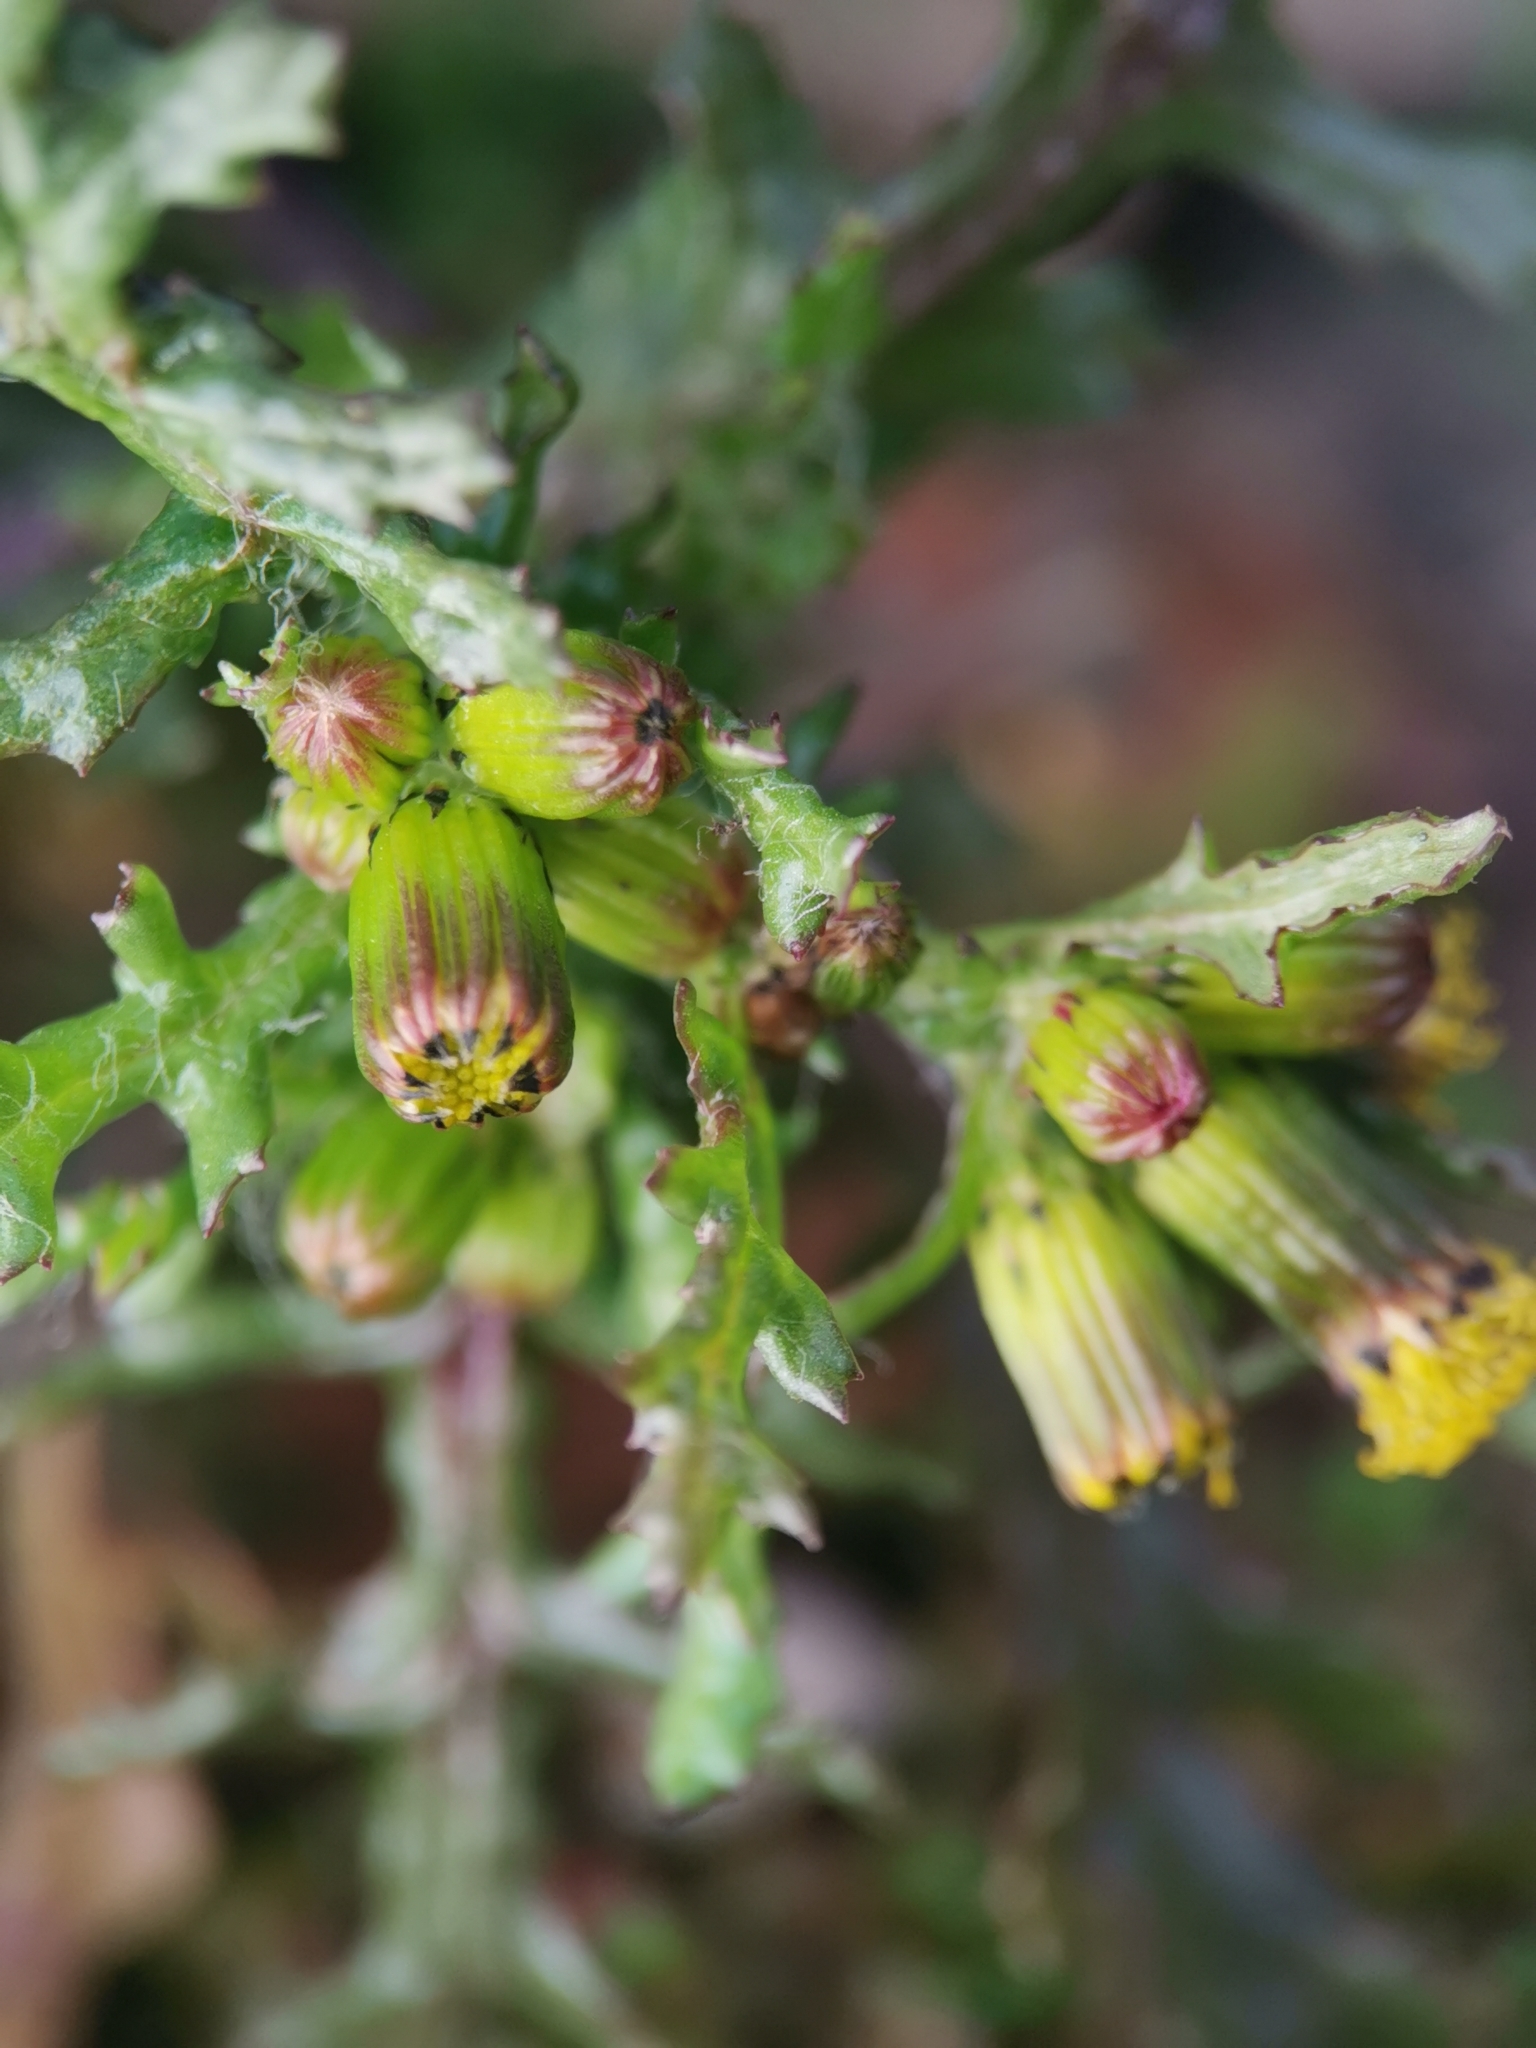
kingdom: Plantae
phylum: Tracheophyta
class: Magnoliopsida
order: Asterales
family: Asteraceae
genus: Senecio
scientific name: Senecio vulgaris
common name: Old-man-in-the-spring
